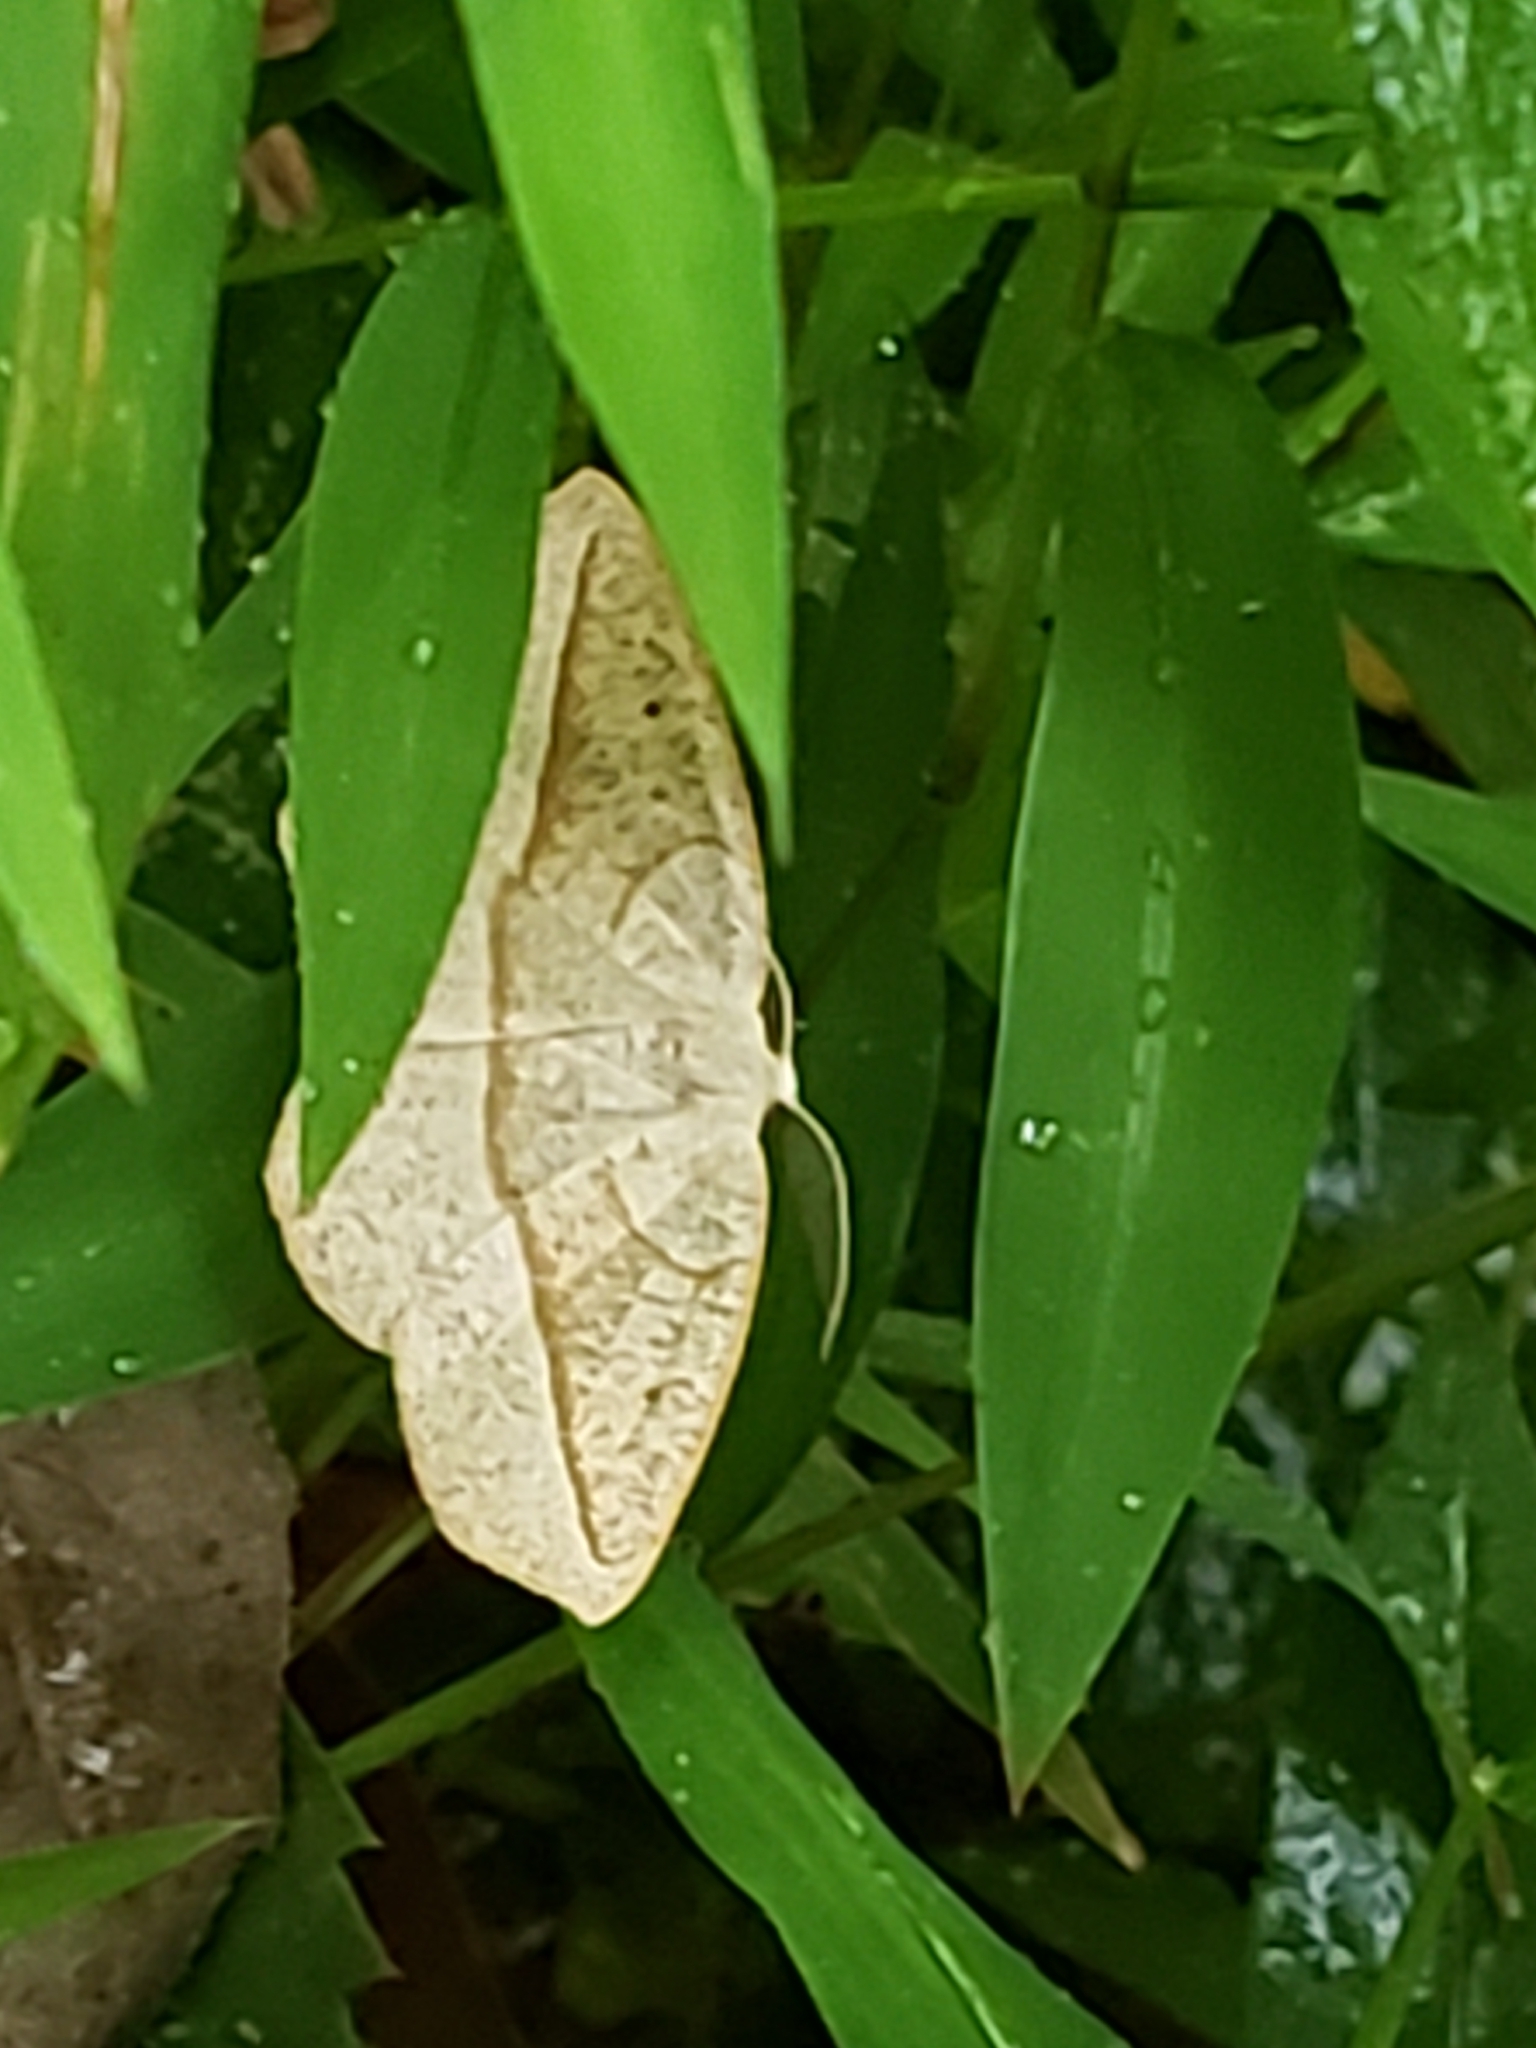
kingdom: Animalia
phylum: Arthropoda
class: Insecta
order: Lepidoptera
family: Geometridae
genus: Eusarca
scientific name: Eusarca confusaria
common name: Confused eusarca
